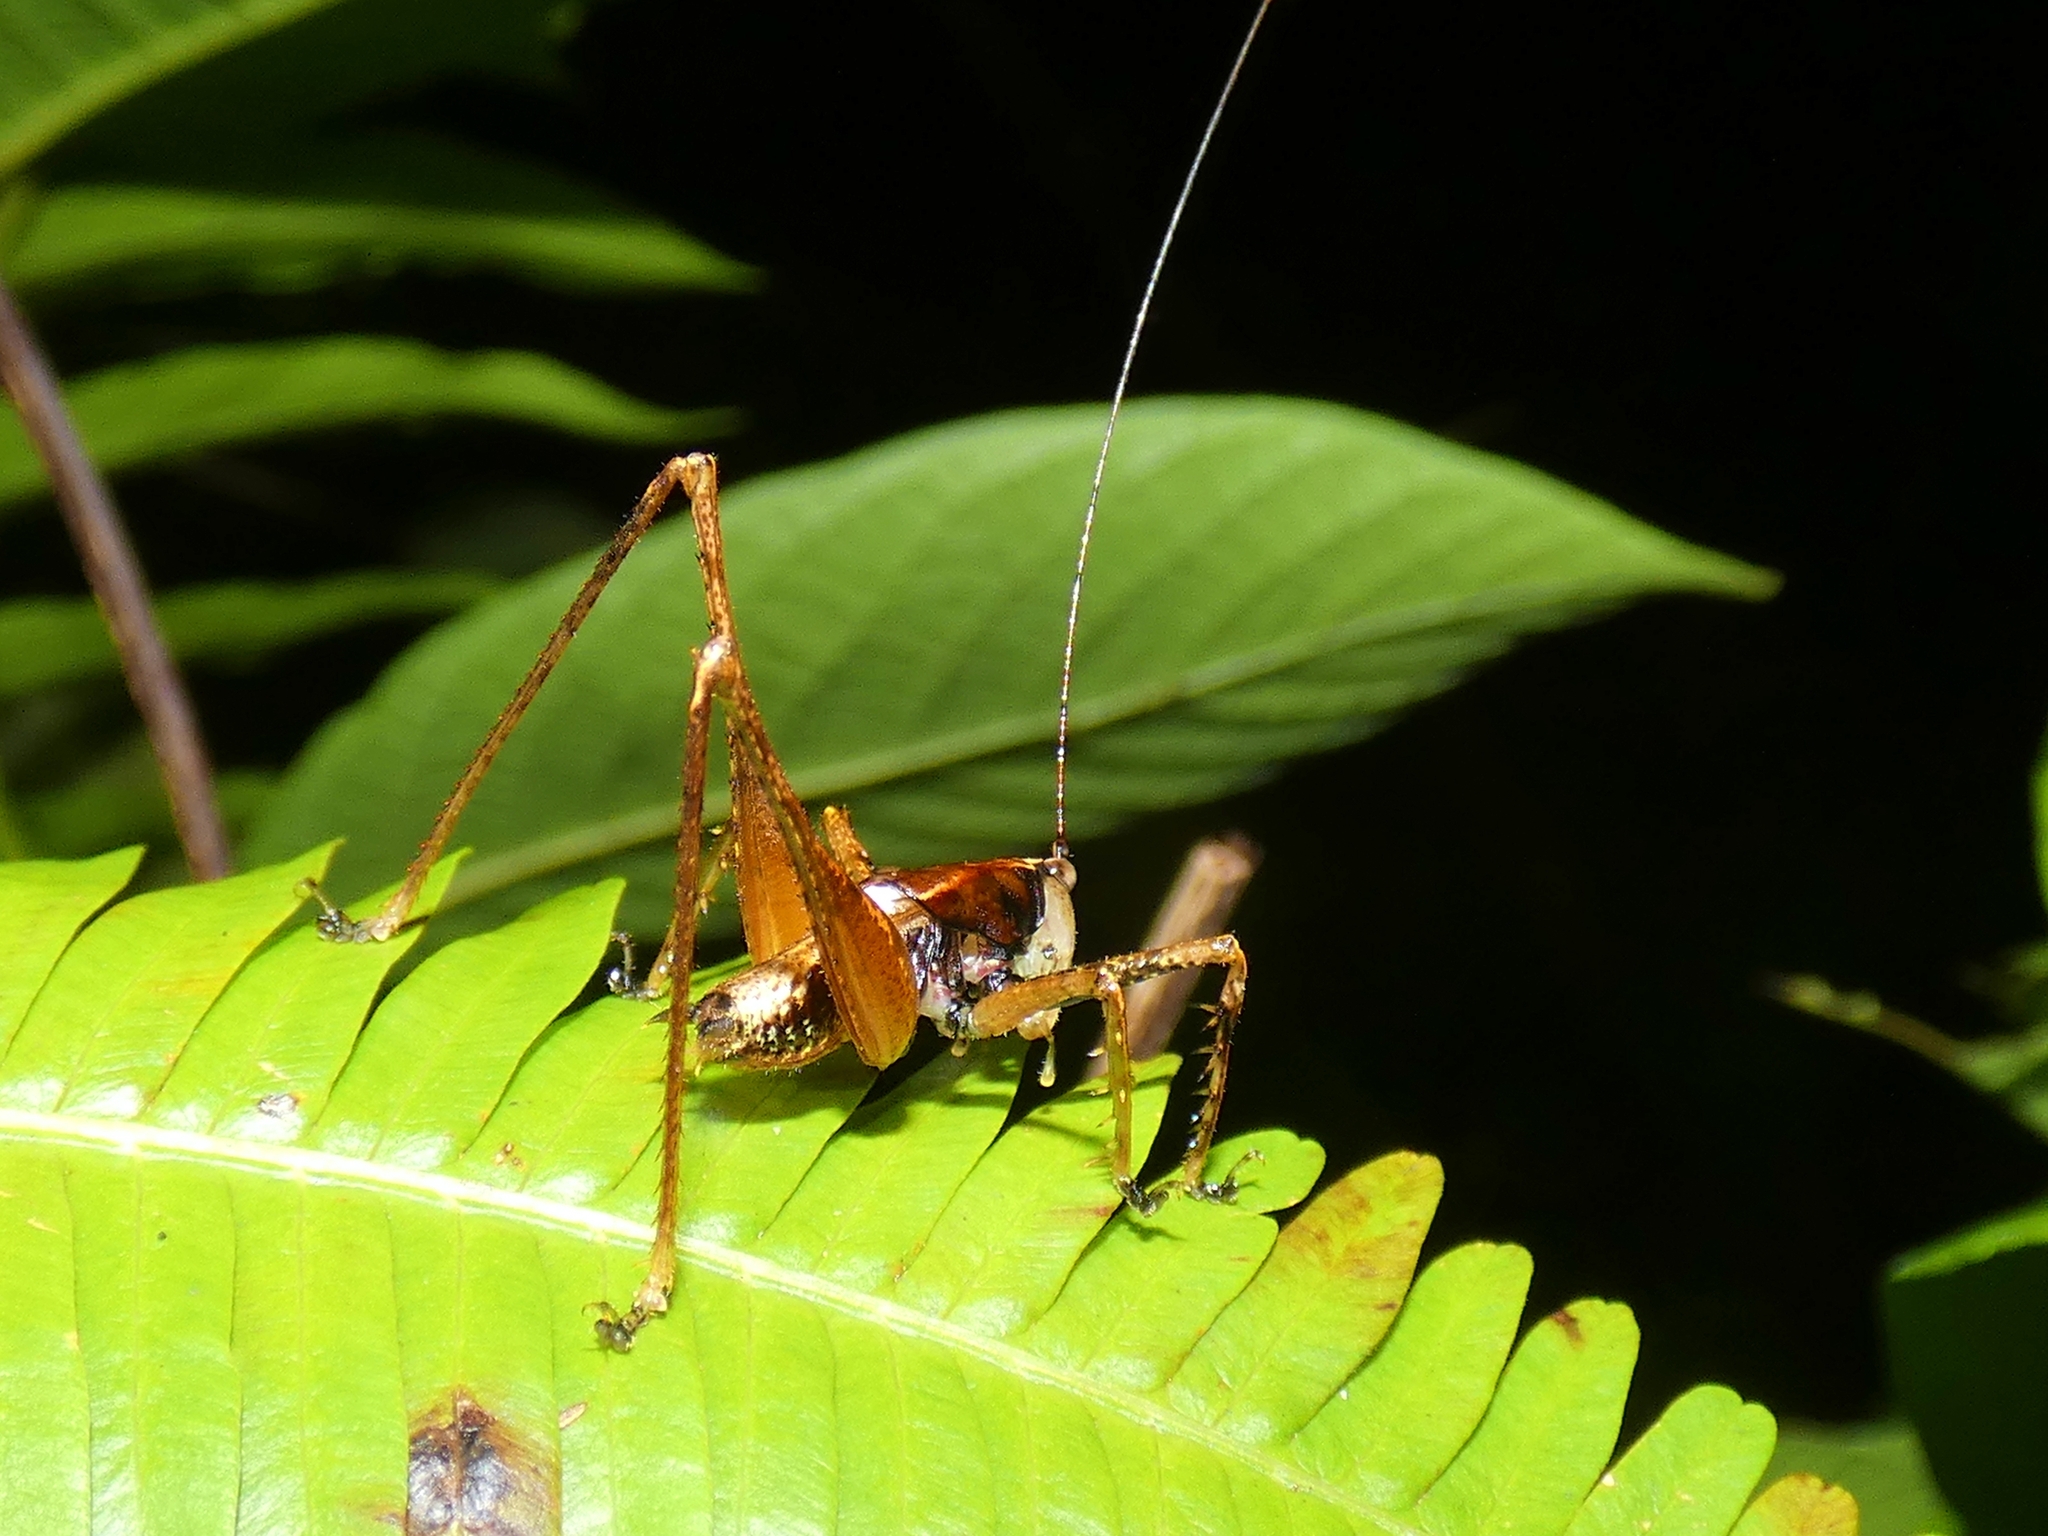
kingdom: Animalia
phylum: Arthropoda
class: Insecta
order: Orthoptera
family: Tettigoniidae
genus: Xingbaoia
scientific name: Xingbaoia karakara
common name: Jin's ginger katydid
